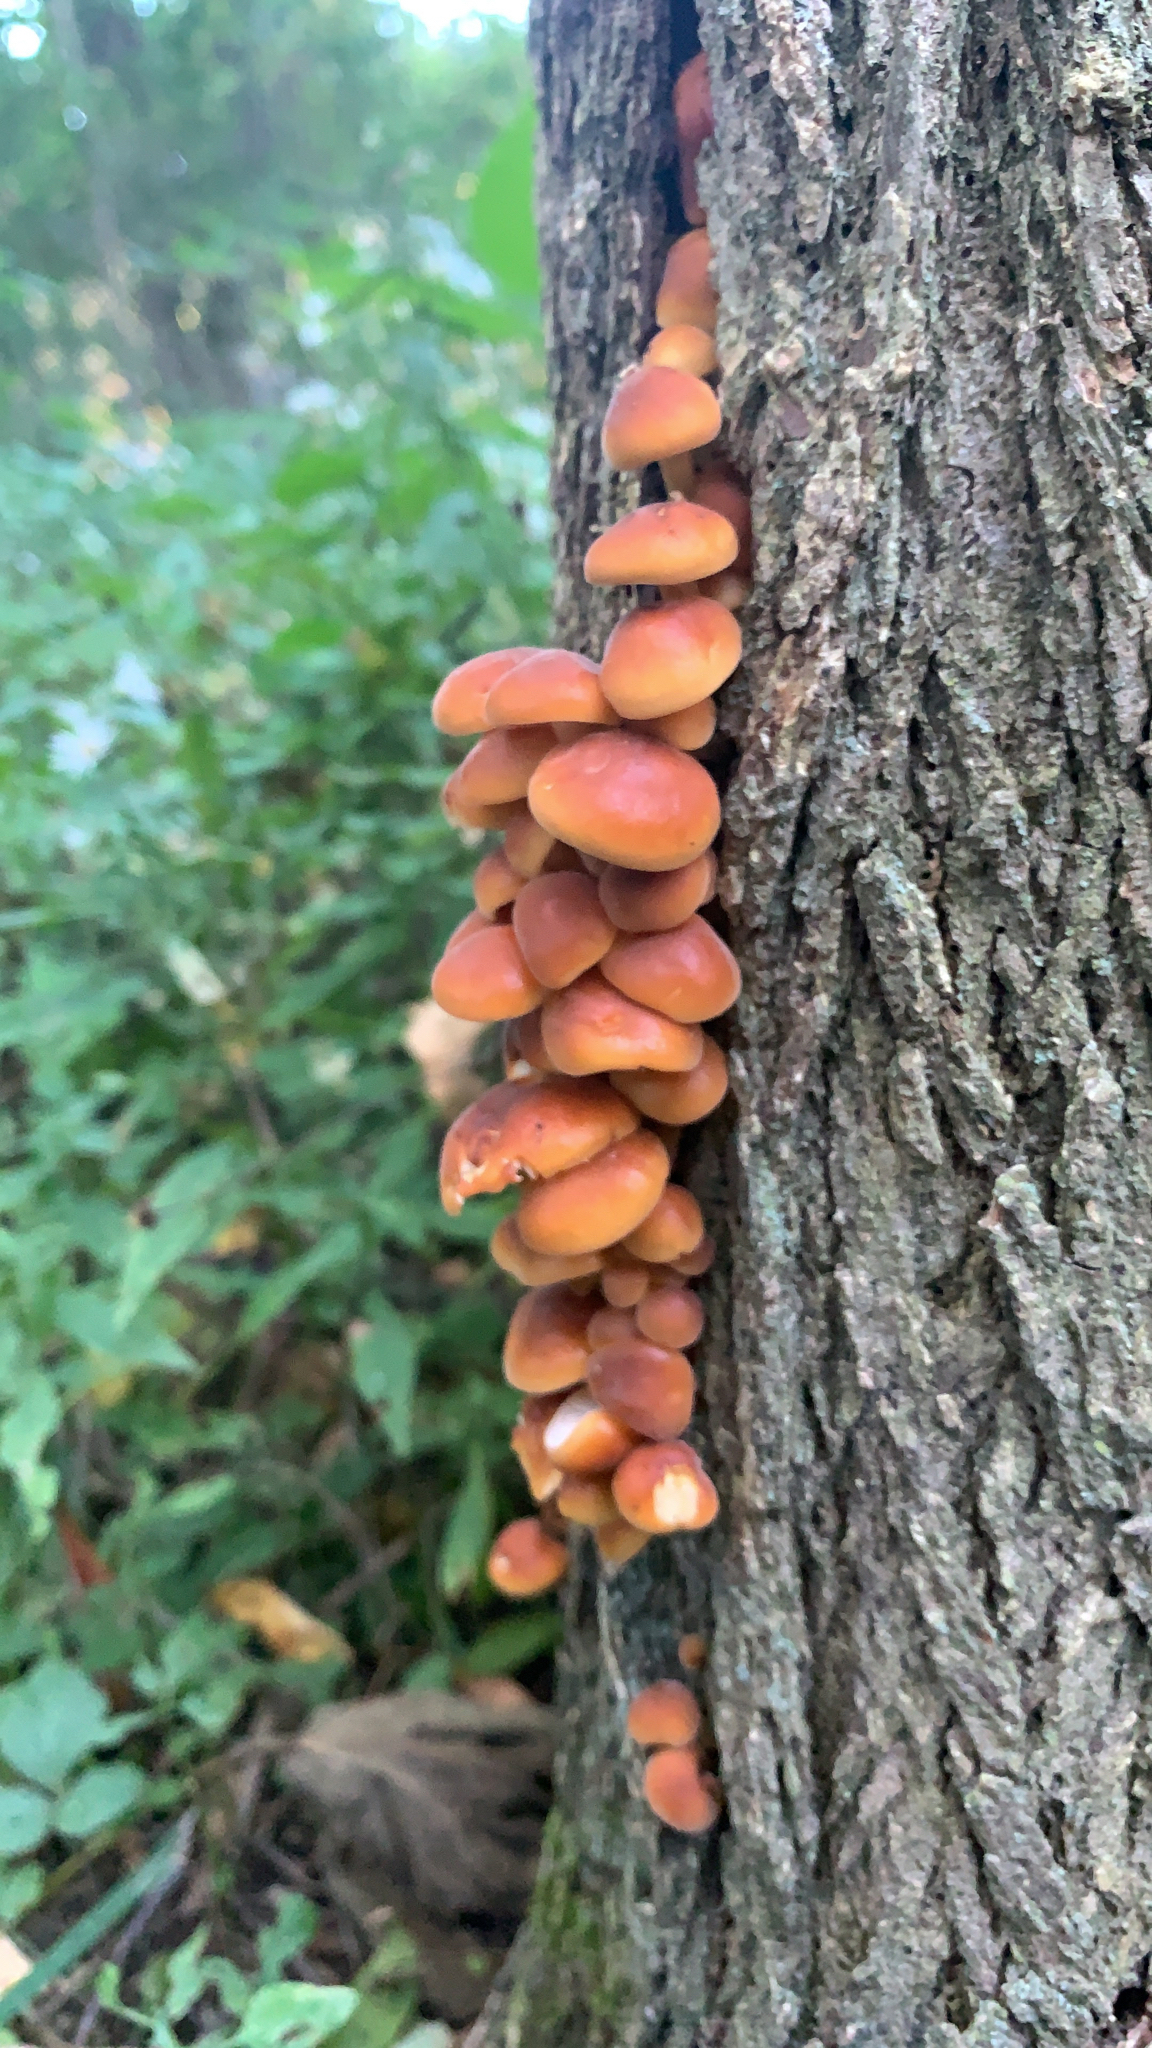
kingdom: Fungi
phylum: Basidiomycota
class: Agaricomycetes
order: Agaricales
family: Physalacriaceae
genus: Flammulina
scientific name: Flammulina velutipes
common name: Velvet shank
